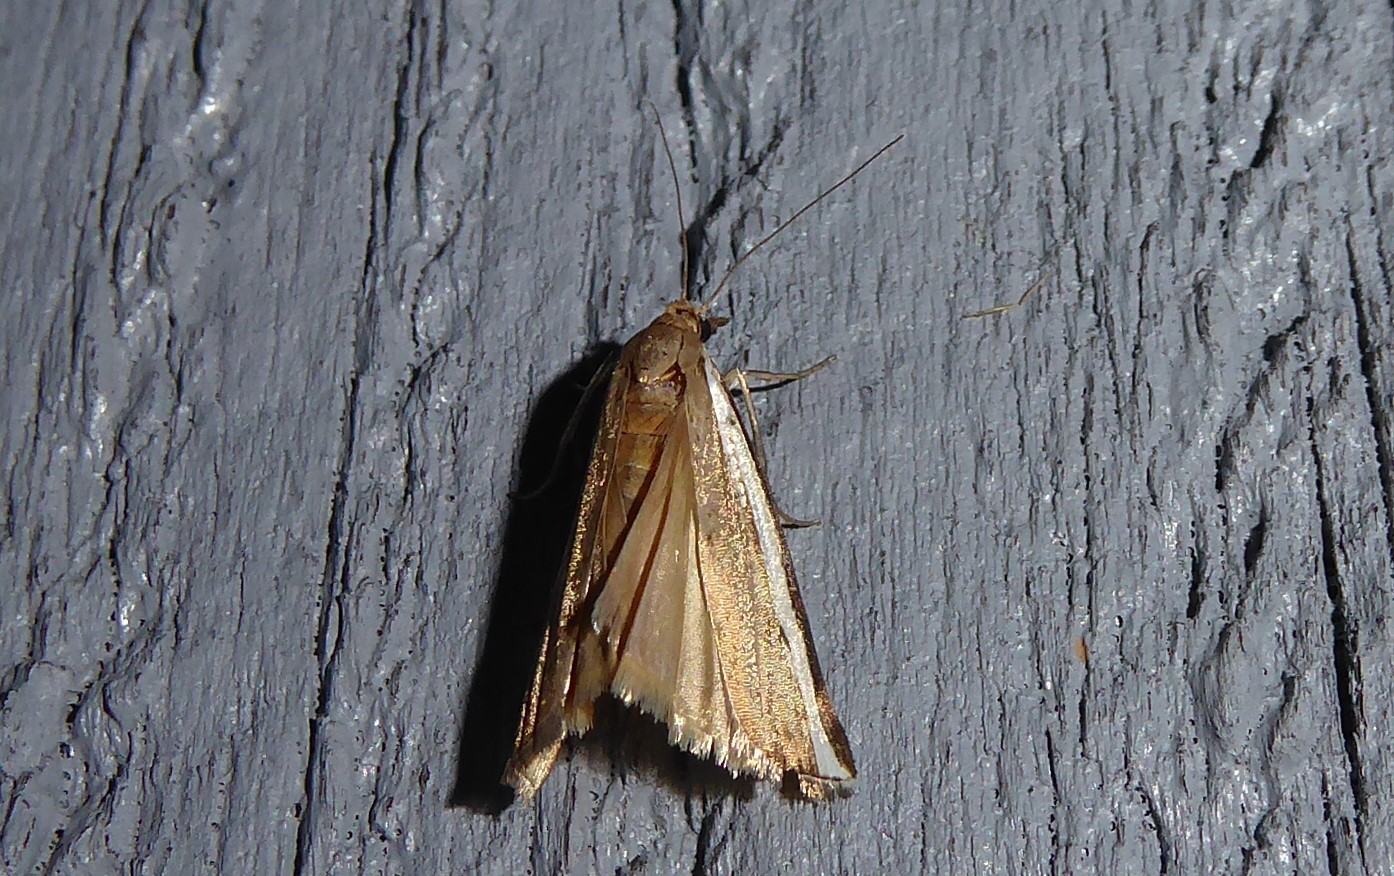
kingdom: Animalia
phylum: Arthropoda
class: Insecta
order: Lepidoptera
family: Crambidae
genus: Orocrambus
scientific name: Orocrambus flexuosellus
